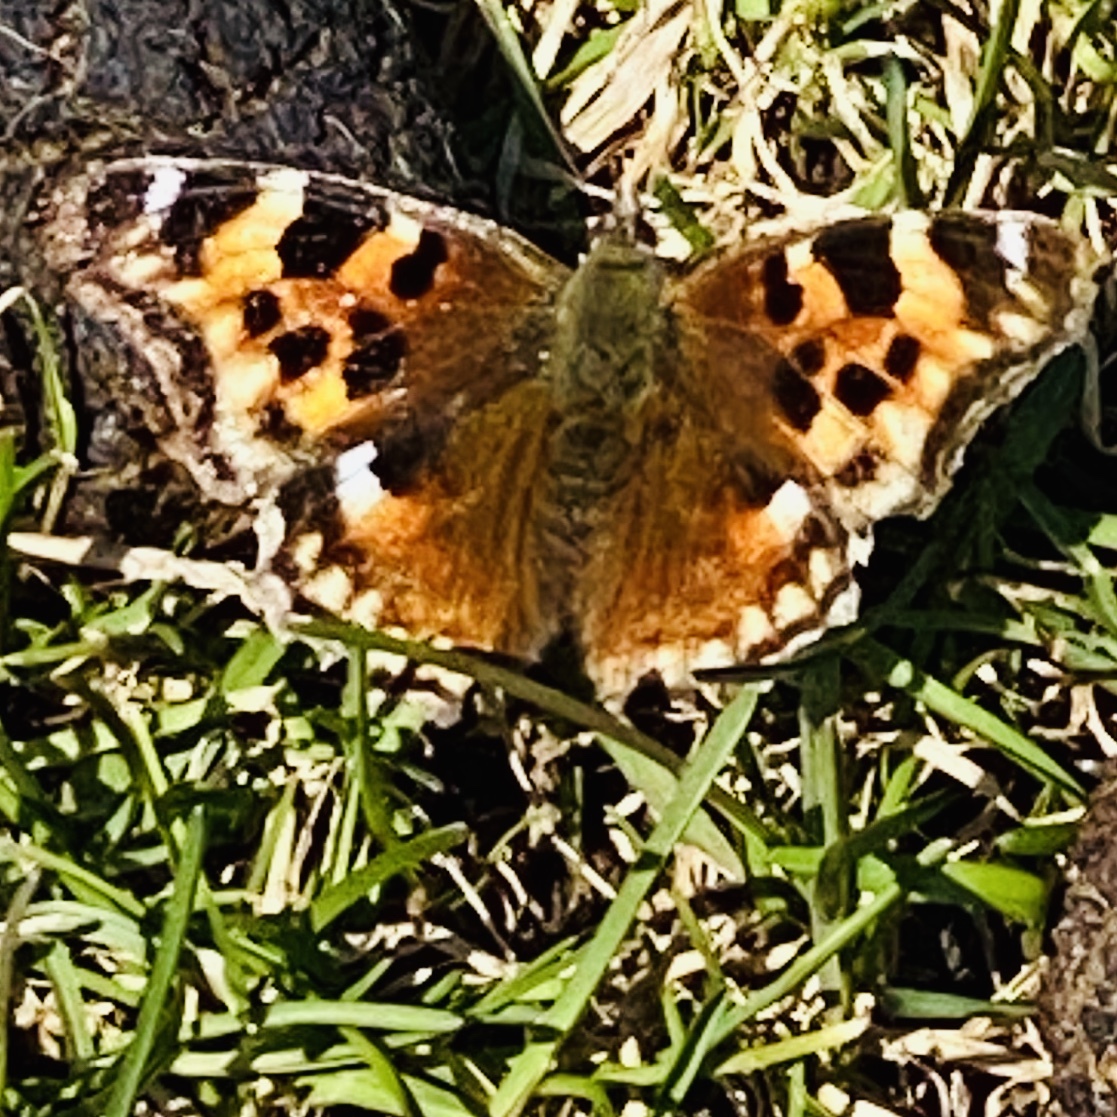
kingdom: Animalia
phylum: Arthropoda
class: Insecta
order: Lepidoptera
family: Nymphalidae
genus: Polygonia
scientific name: Polygonia vaualbum
